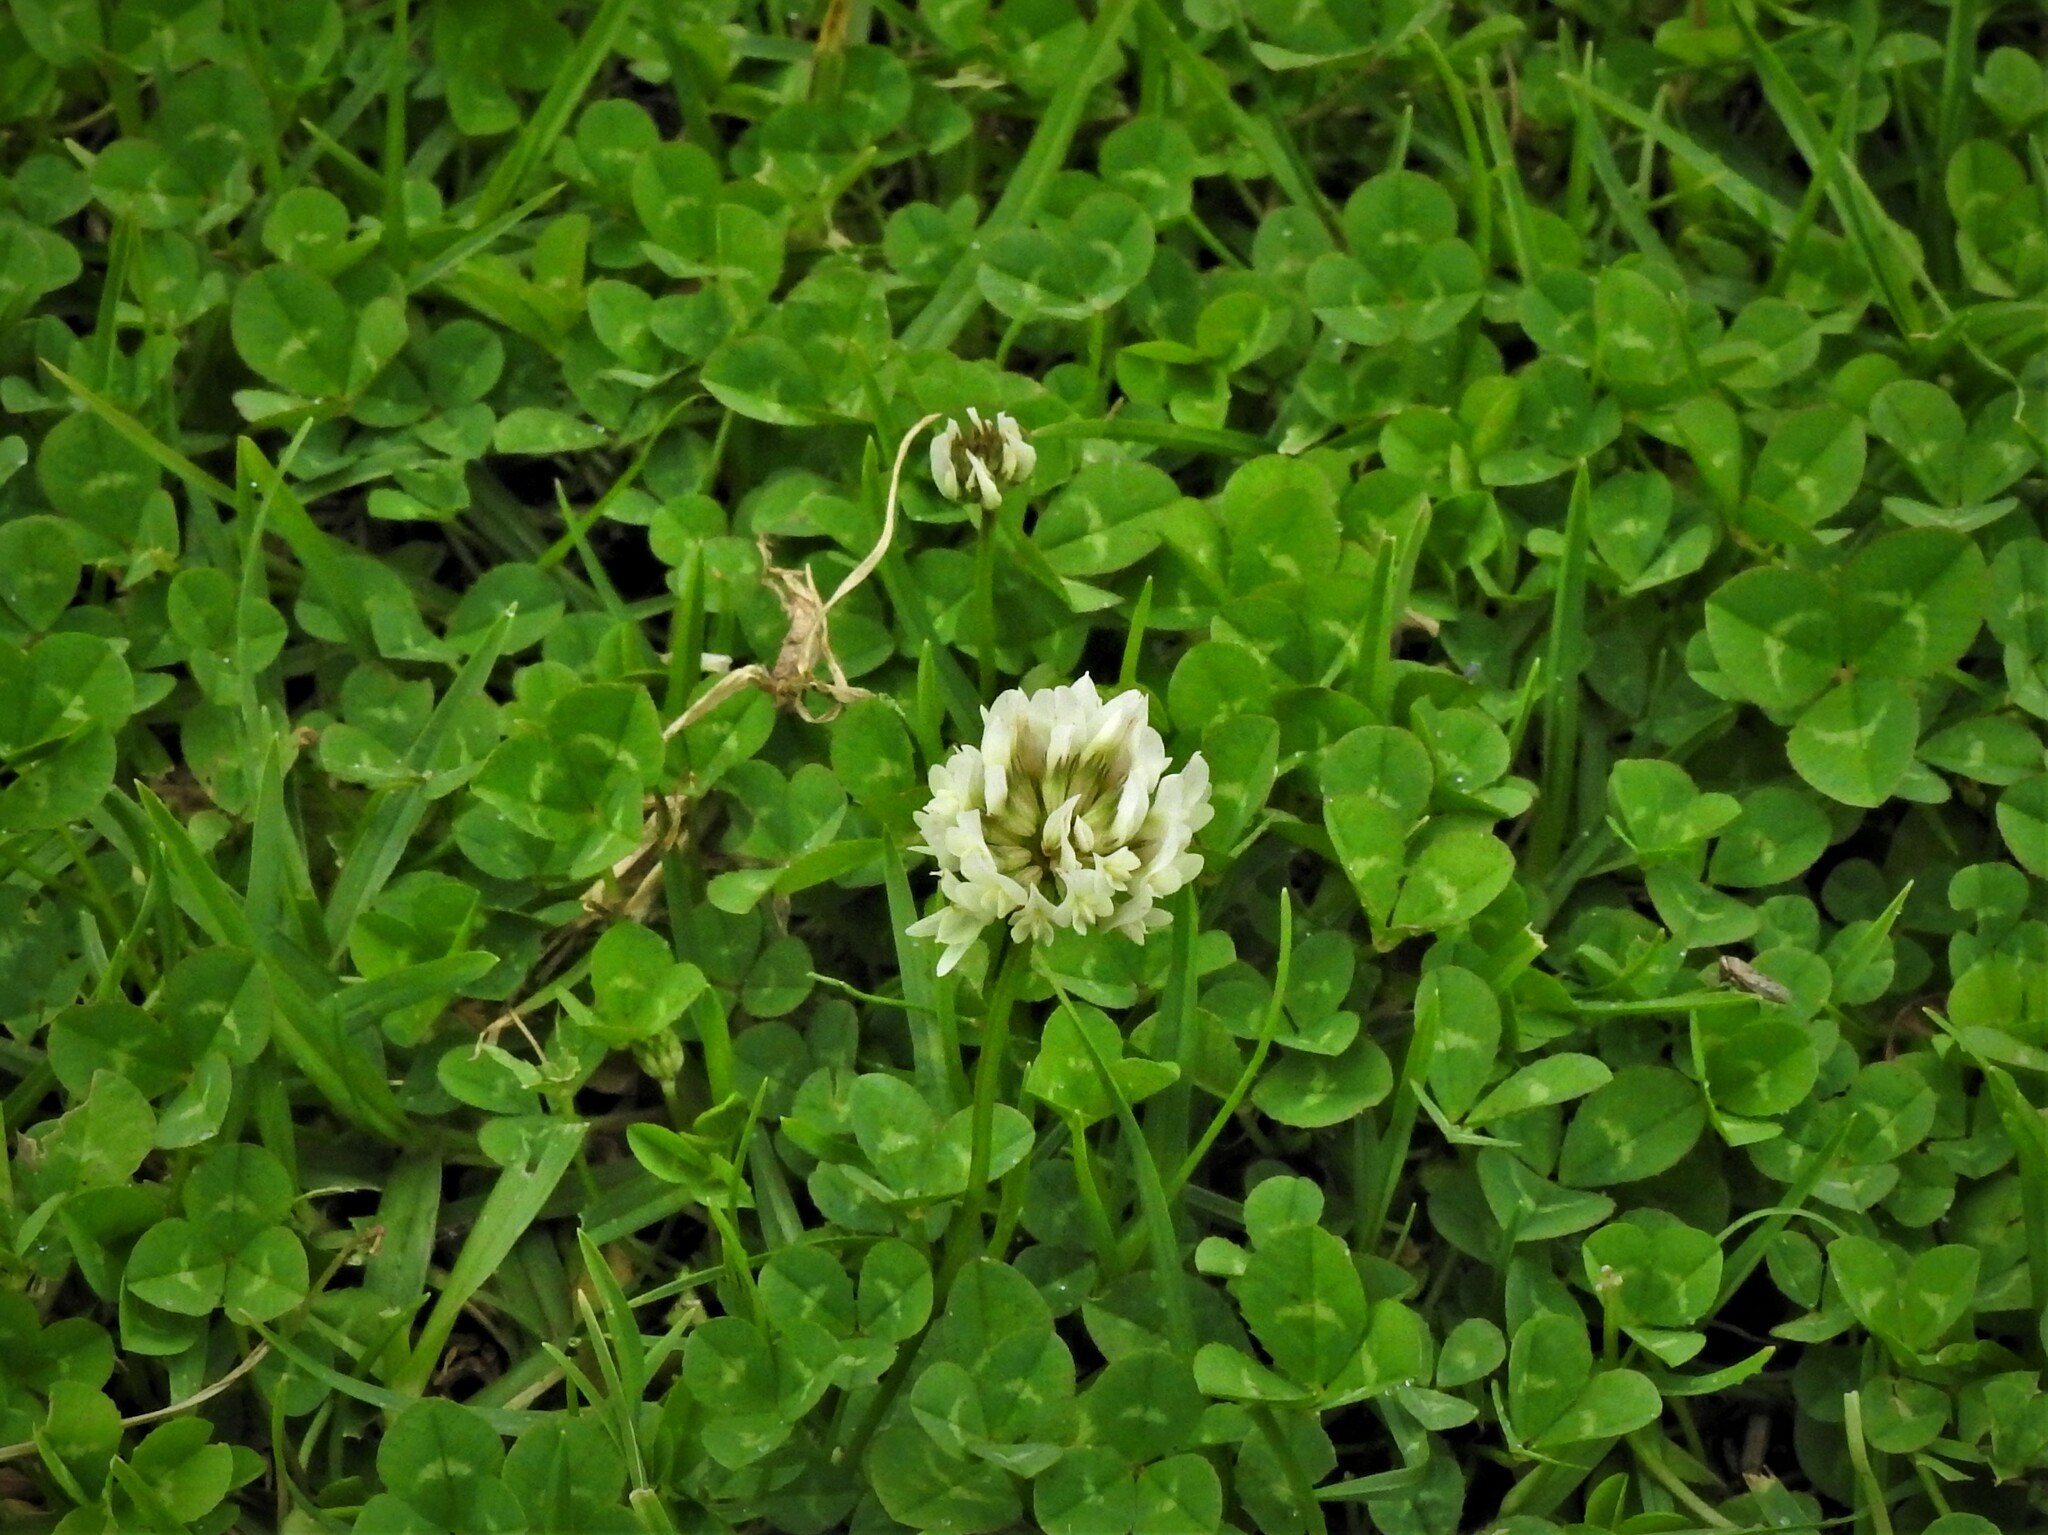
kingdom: Plantae
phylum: Tracheophyta
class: Magnoliopsida
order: Fabales
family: Fabaceae
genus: Trifolium
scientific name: Trifolium repens
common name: White clover
